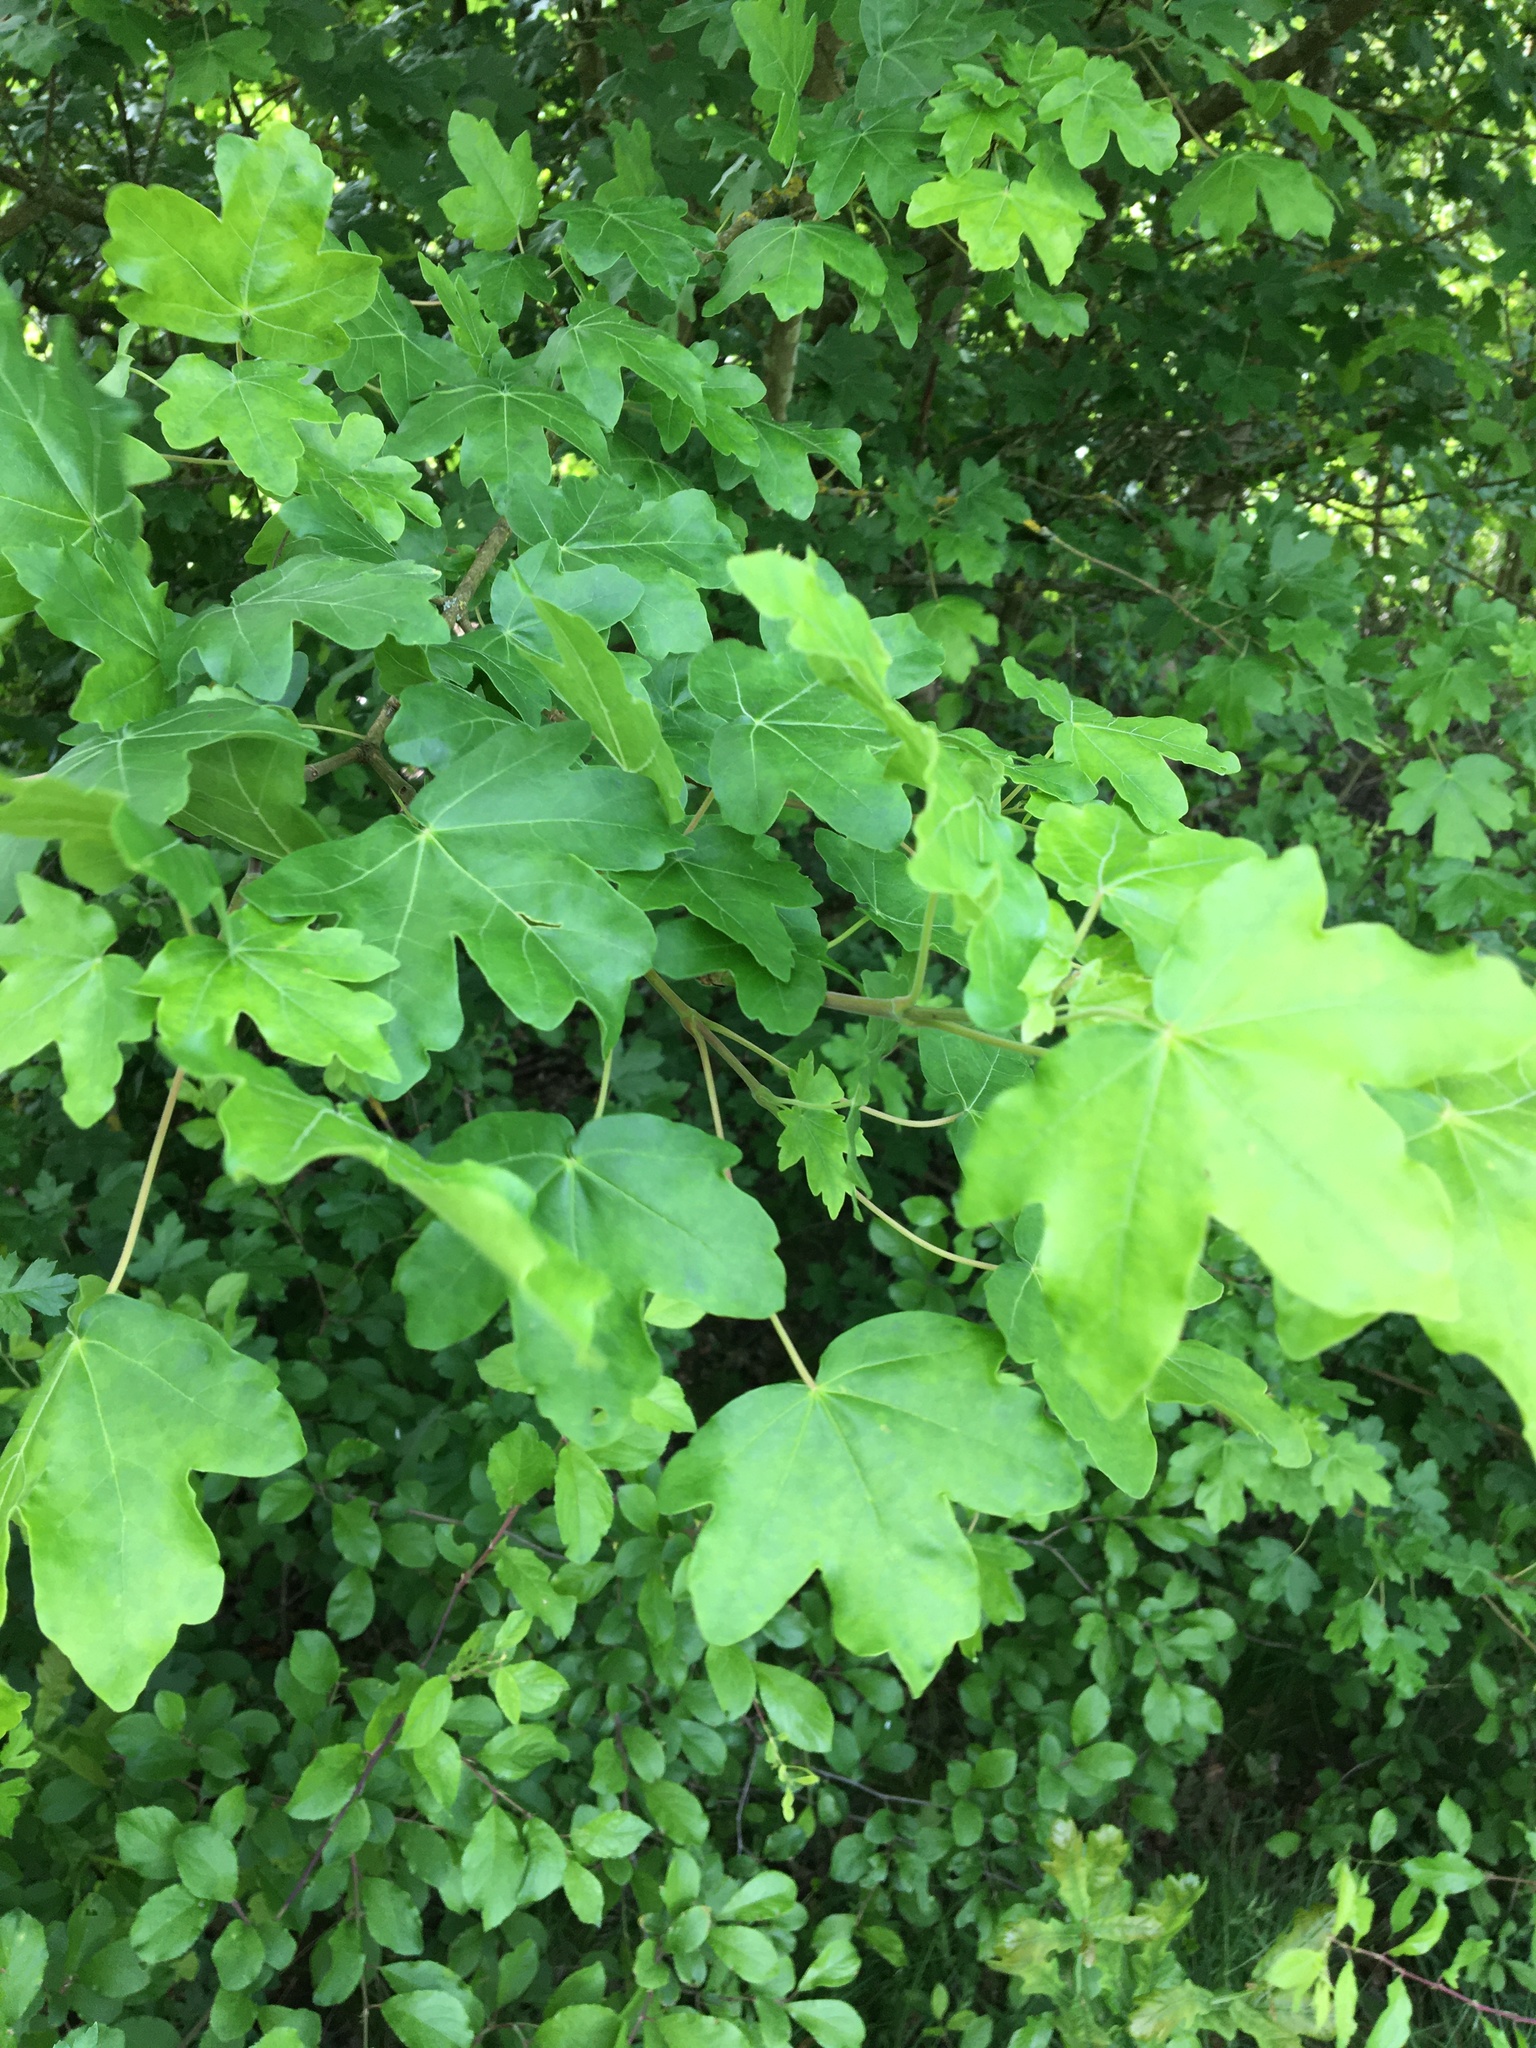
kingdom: Plantae
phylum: Tracheophyta
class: Magnoliopsida
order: Sapindales
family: Sapindaceae
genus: Acer
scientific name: Acer campestre
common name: Field maple
